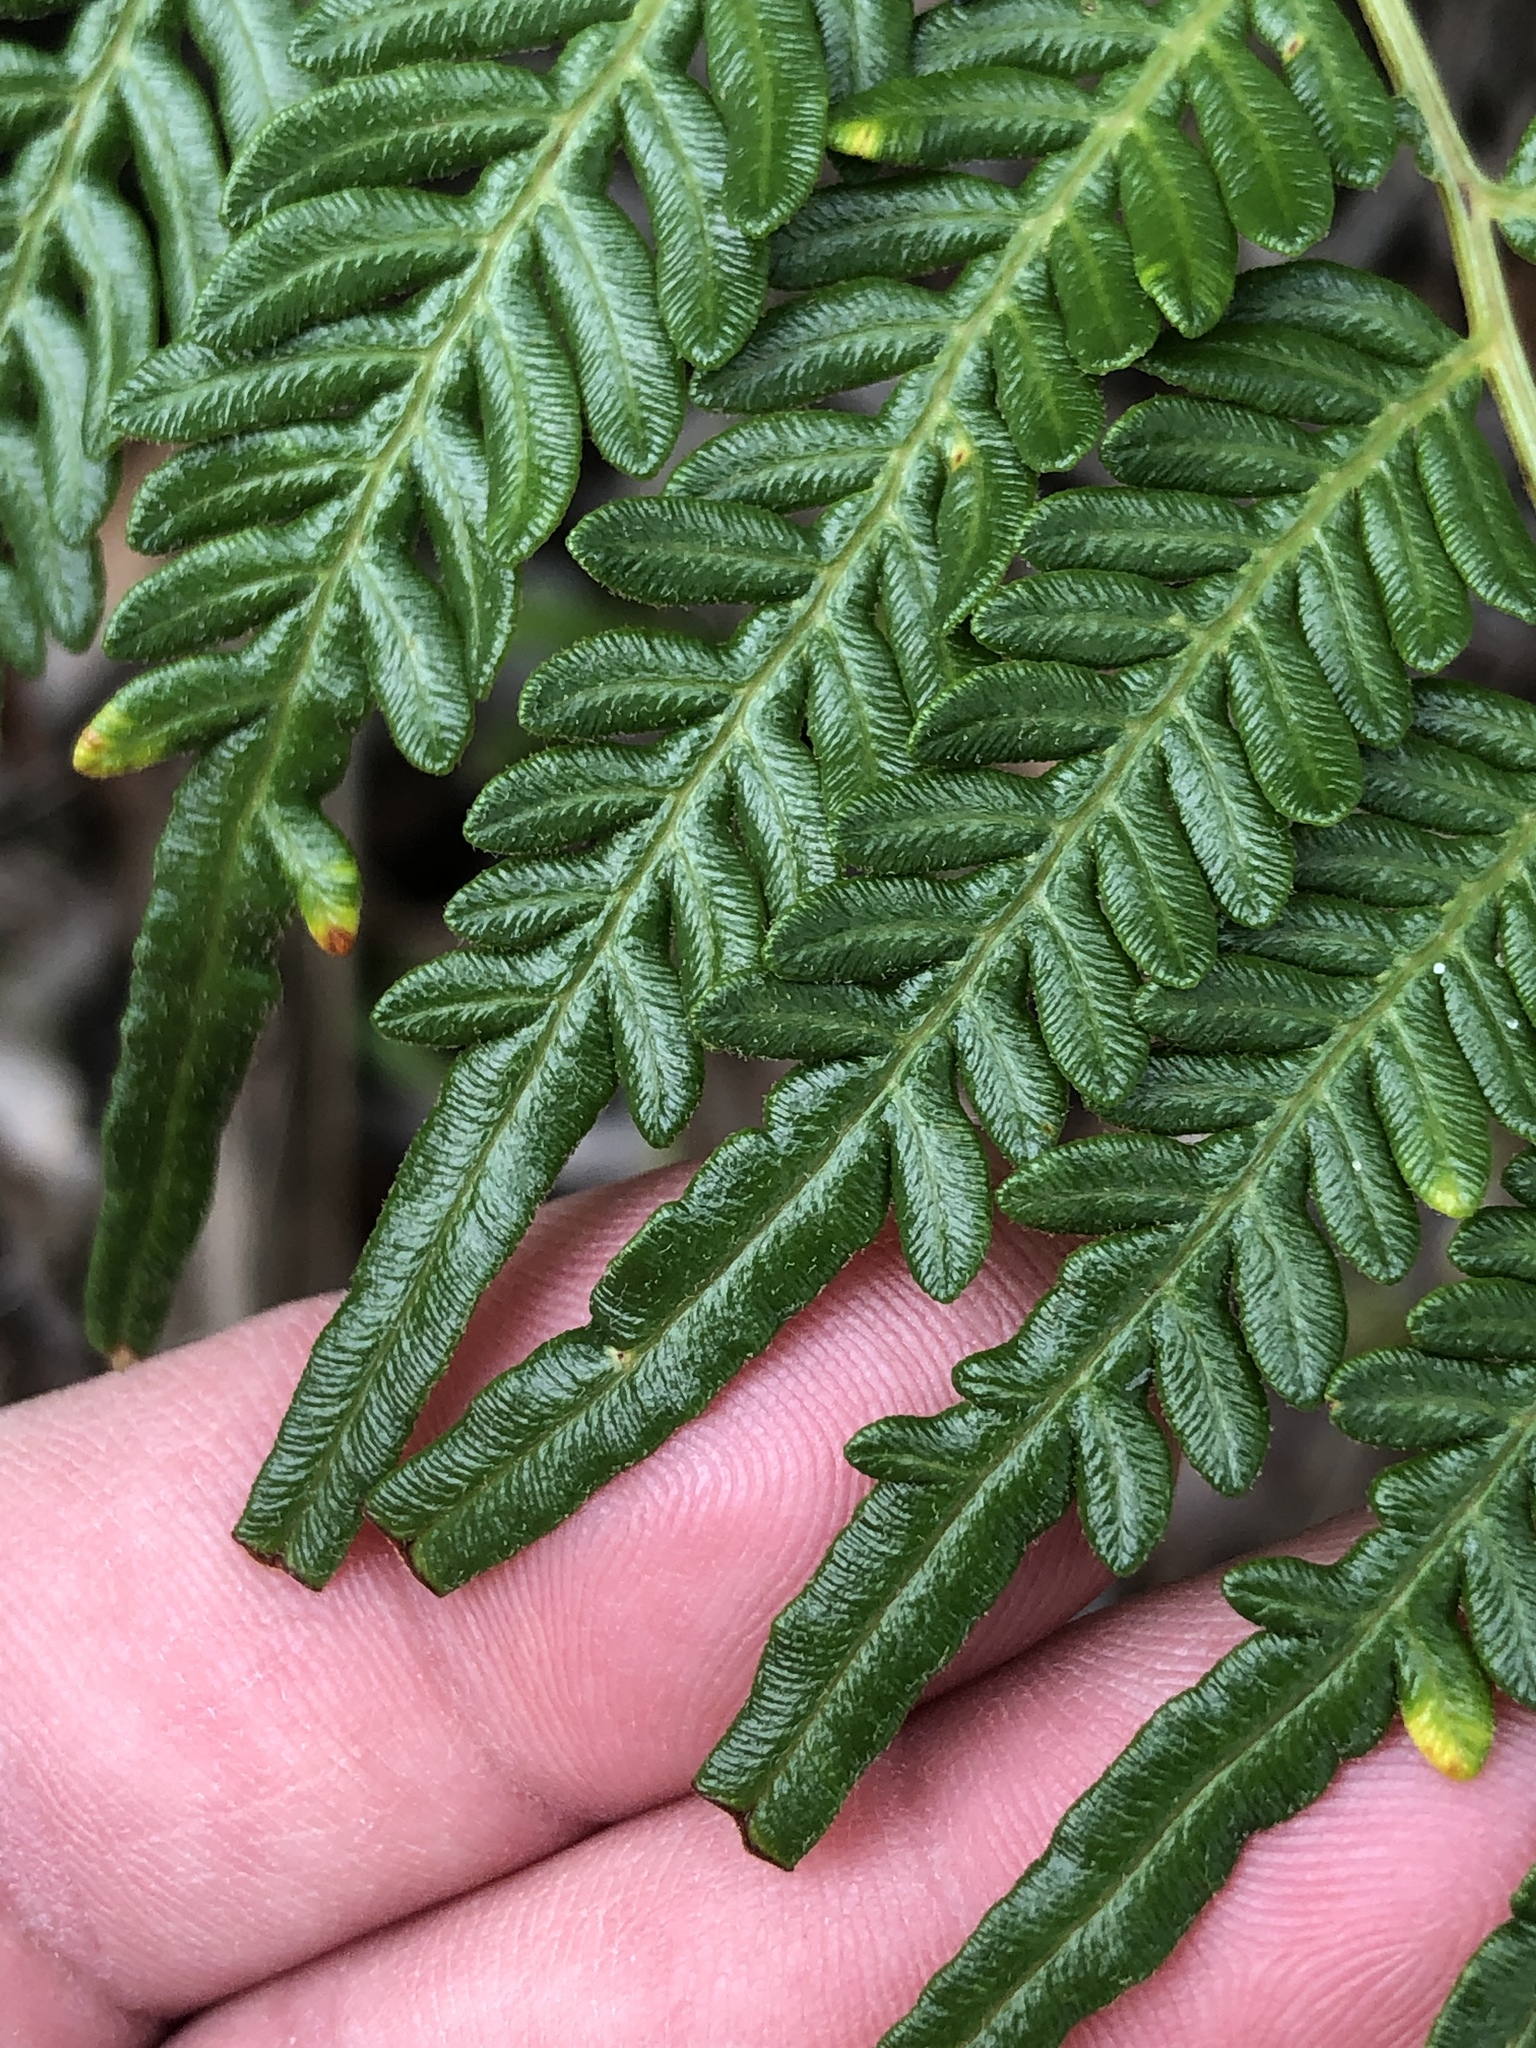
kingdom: Plantae
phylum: Tracheophyta
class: Polypodiopsida
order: Polypodiales
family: Dennstaedtiaceae
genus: Pteridium
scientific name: Pteridium esculentum
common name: Bracken fern
